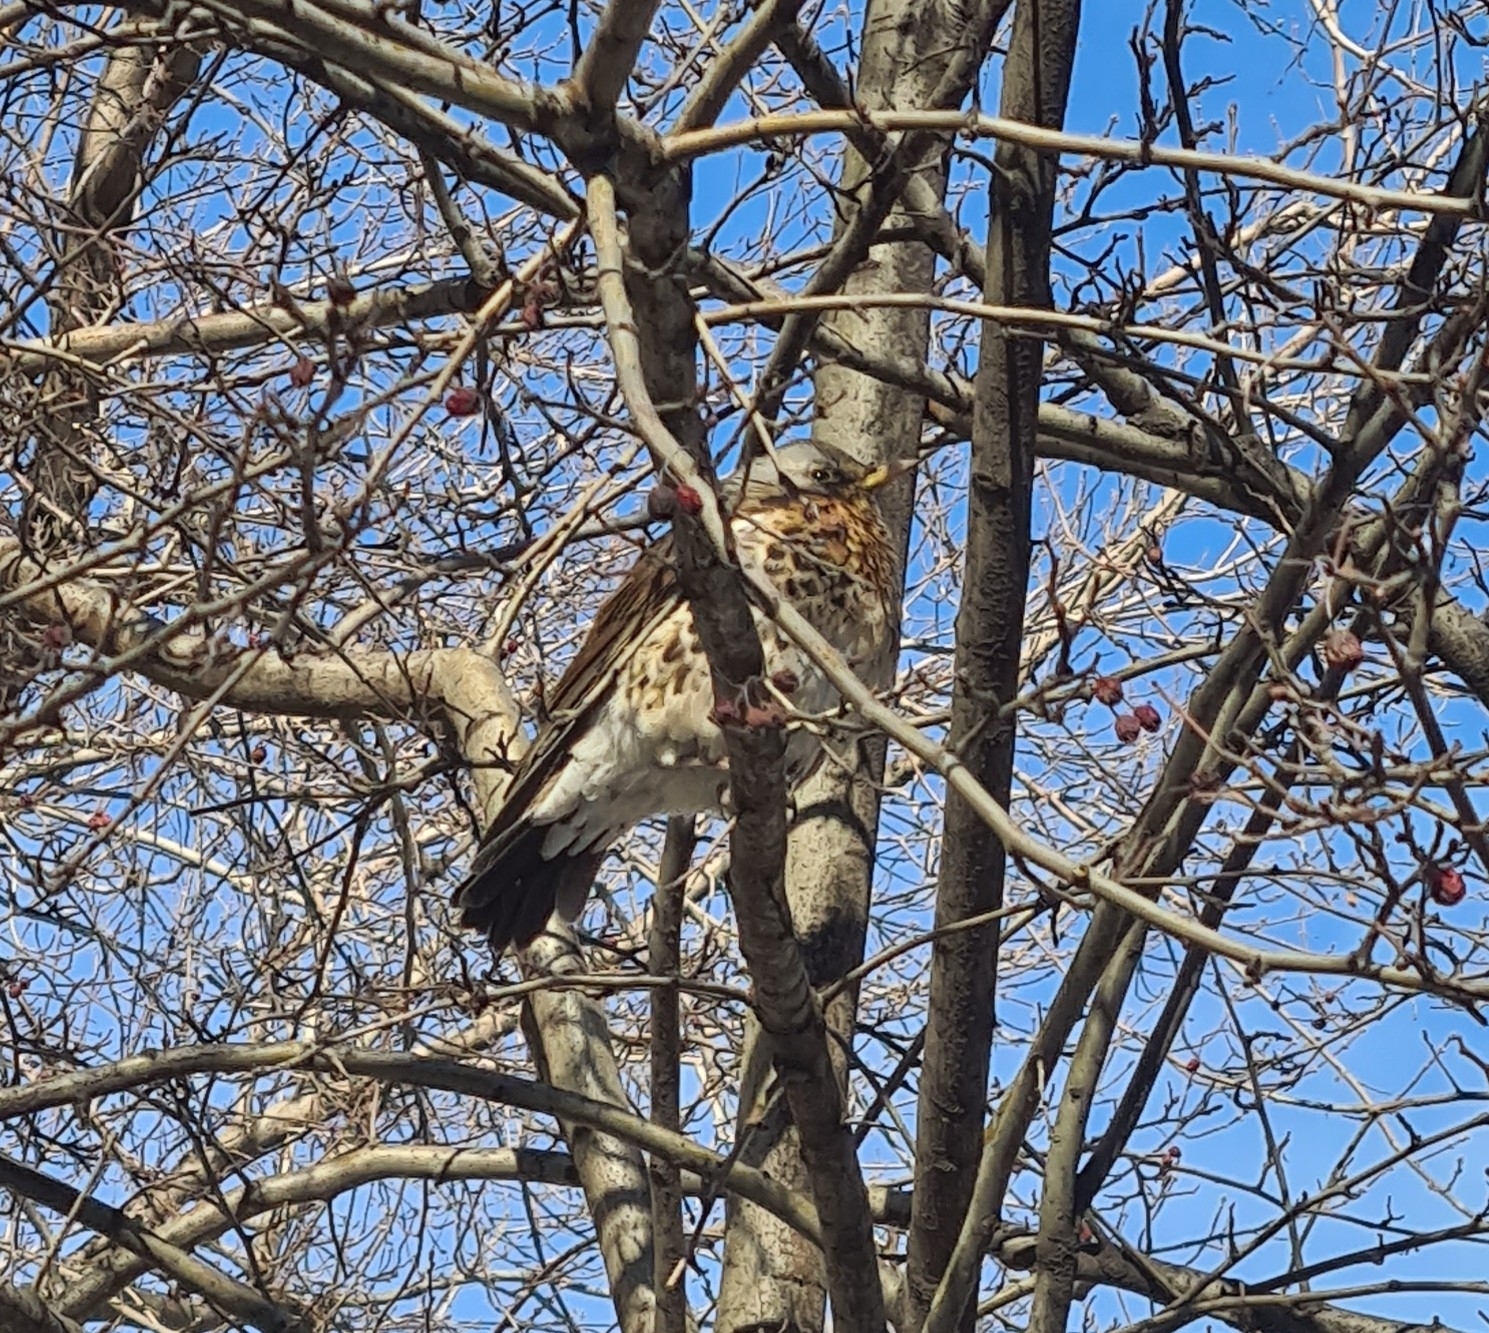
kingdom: Animalia
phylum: Chordata
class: Aves
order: Passeriformes
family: Turdidae
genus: Turdus
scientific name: Turdus pilaris
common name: Fieldfare
